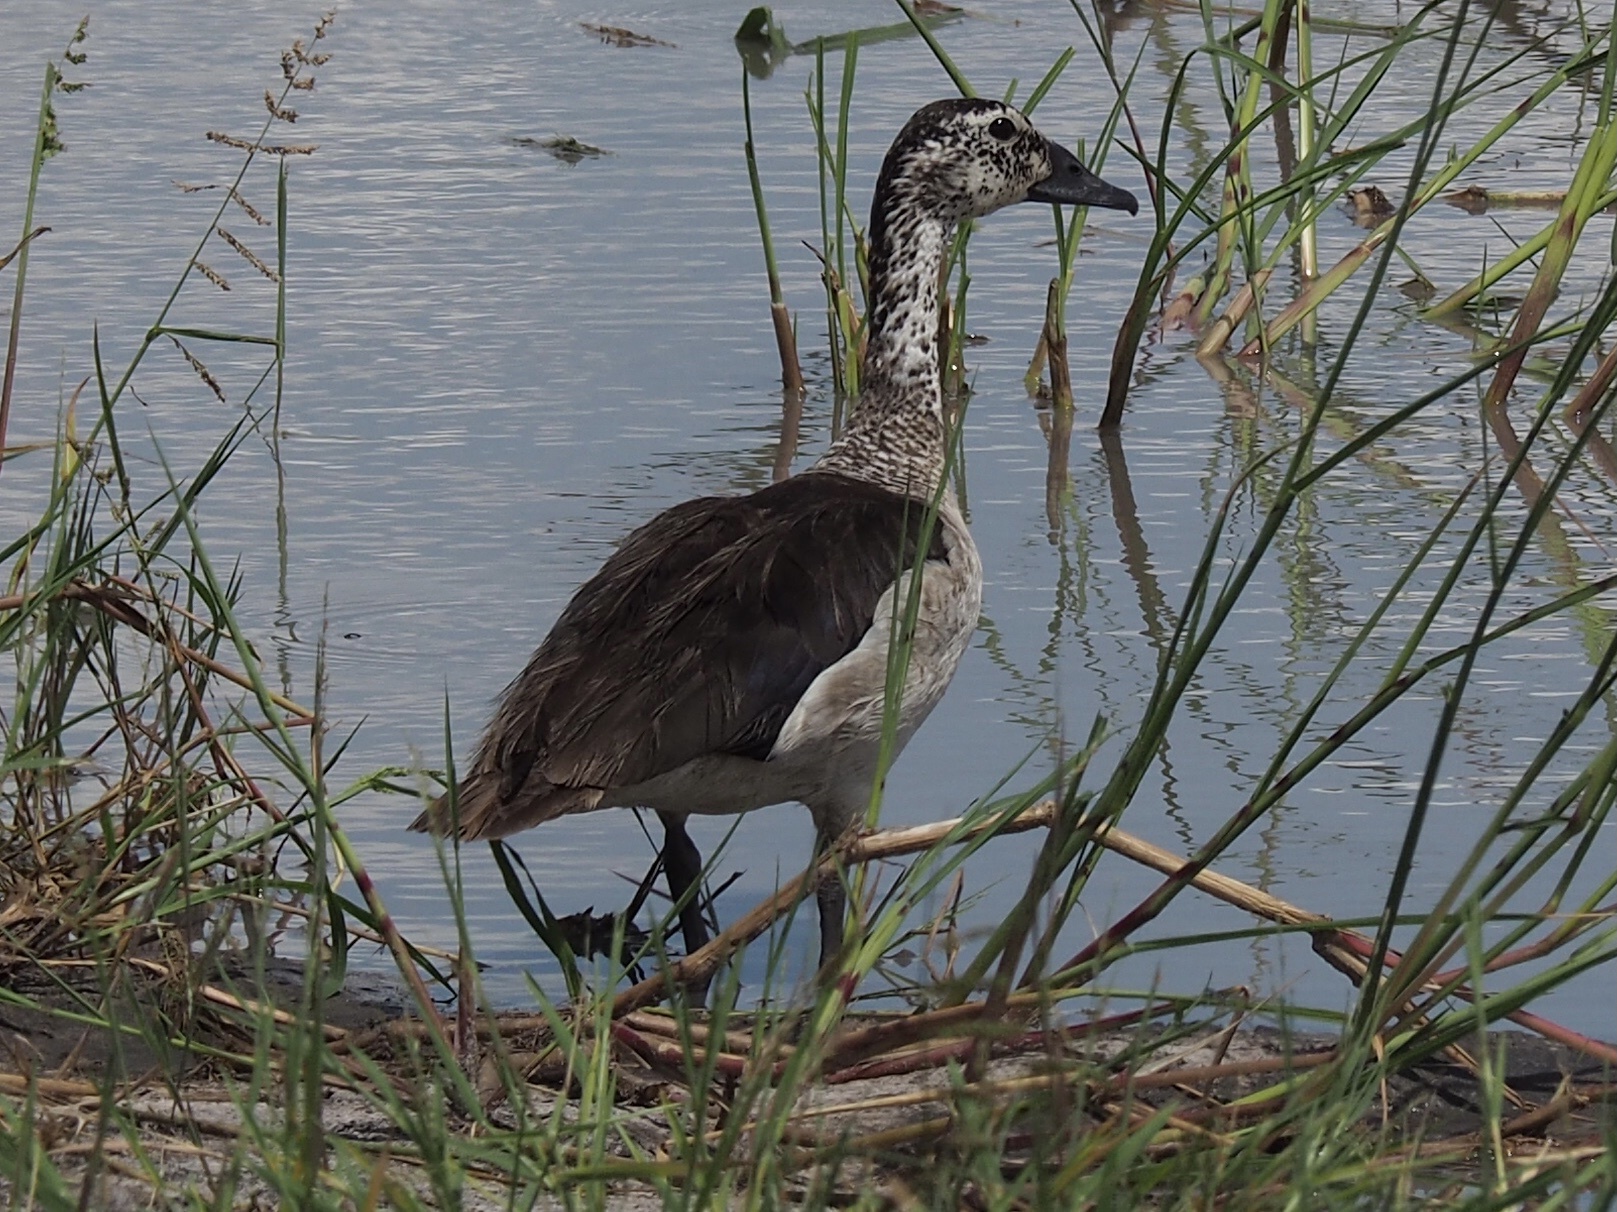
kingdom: Animalia
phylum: Chordata
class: Aves
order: Anseriformes
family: Anatidae
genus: Sarkidiornis
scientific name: Sarkidiornis melanotos
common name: Comb duck
